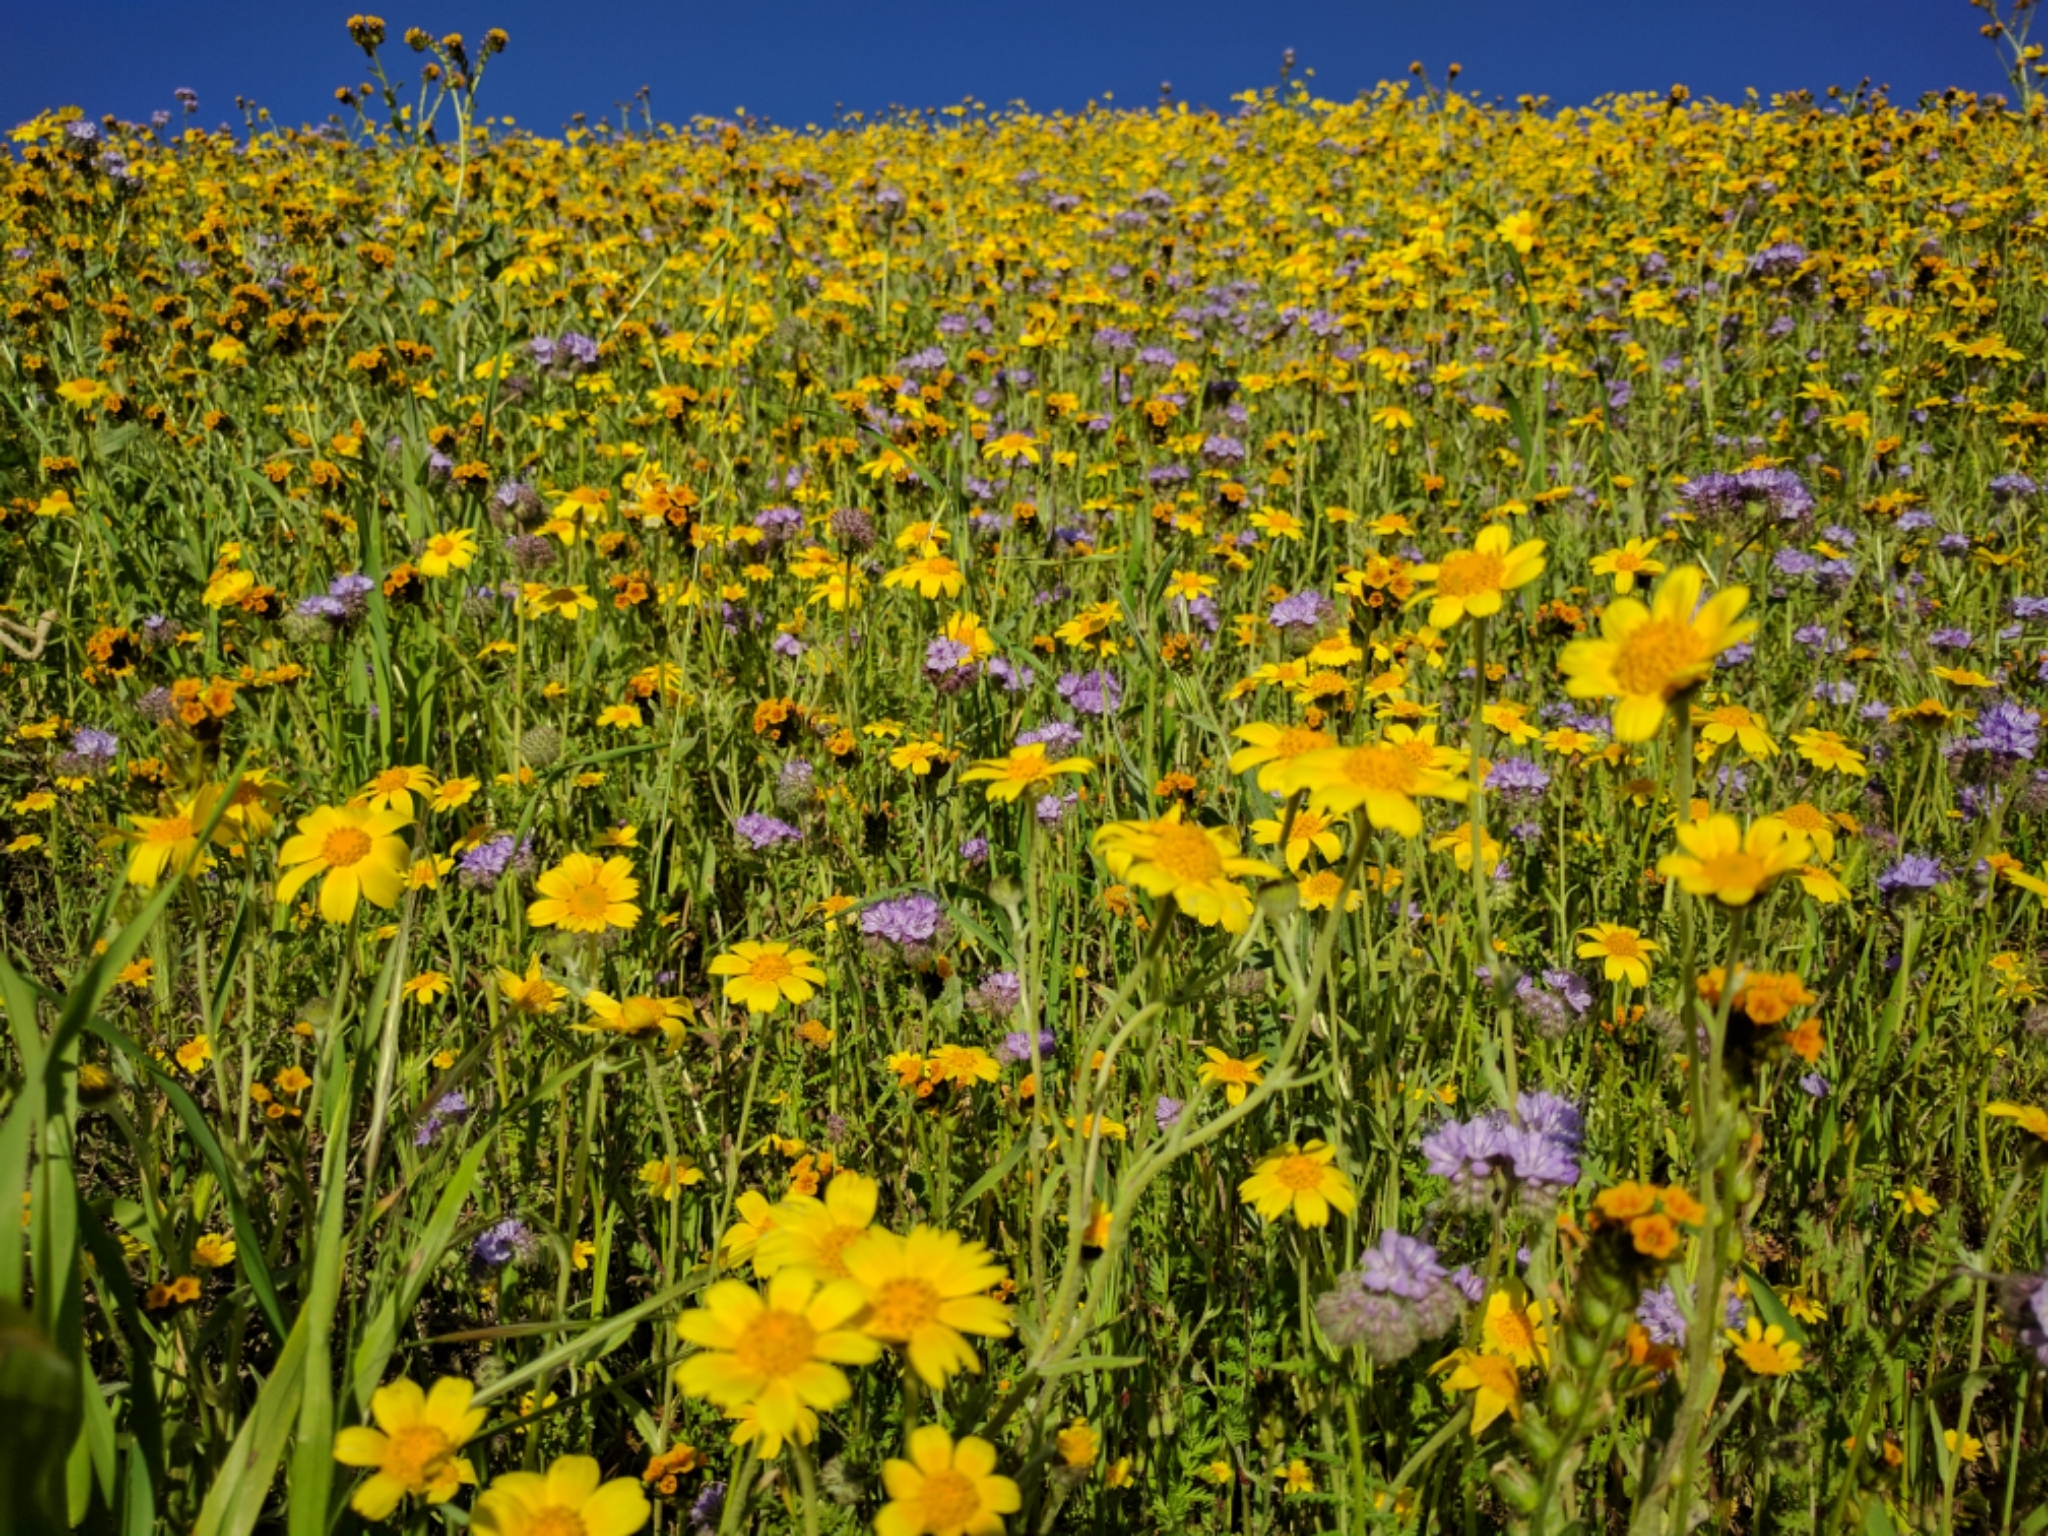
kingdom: Plantae
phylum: Tracheophyta
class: Magnoliopsida
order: Asterales
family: Asteraceae
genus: Monolopia
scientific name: Monolopia lanceolata
